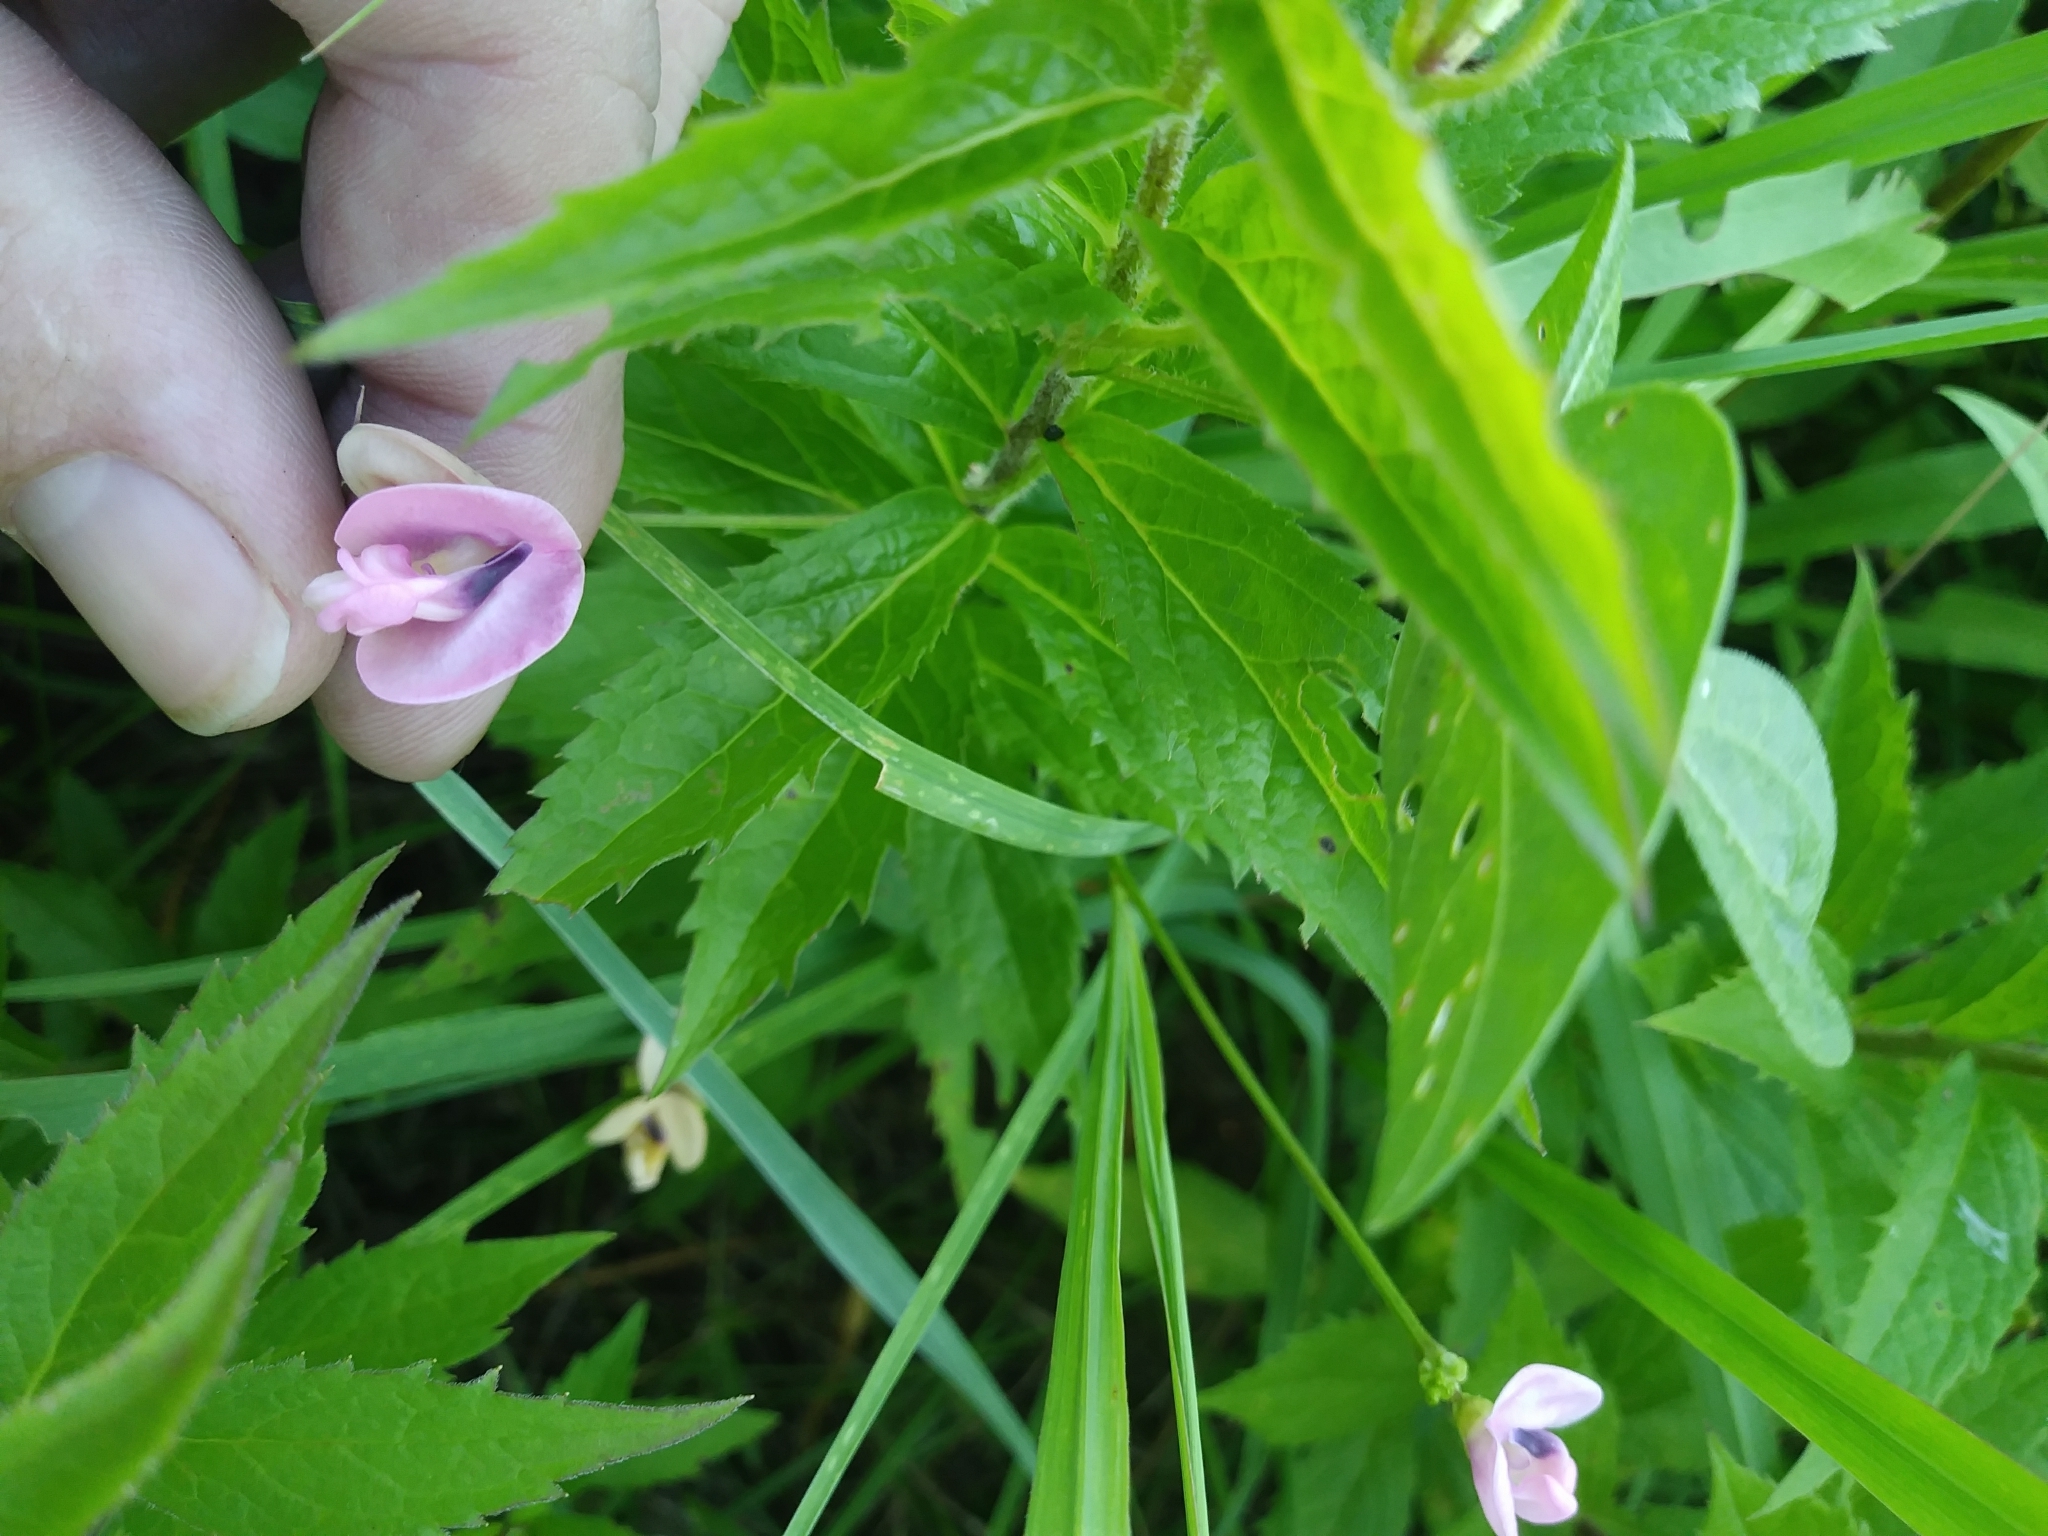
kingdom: Plantae
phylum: Tracheophyta
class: Magnoliopsida
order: Fabales
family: Fabaceae
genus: Strophostyles
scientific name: Strophostyles umbellata
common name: Perennial wild bean
